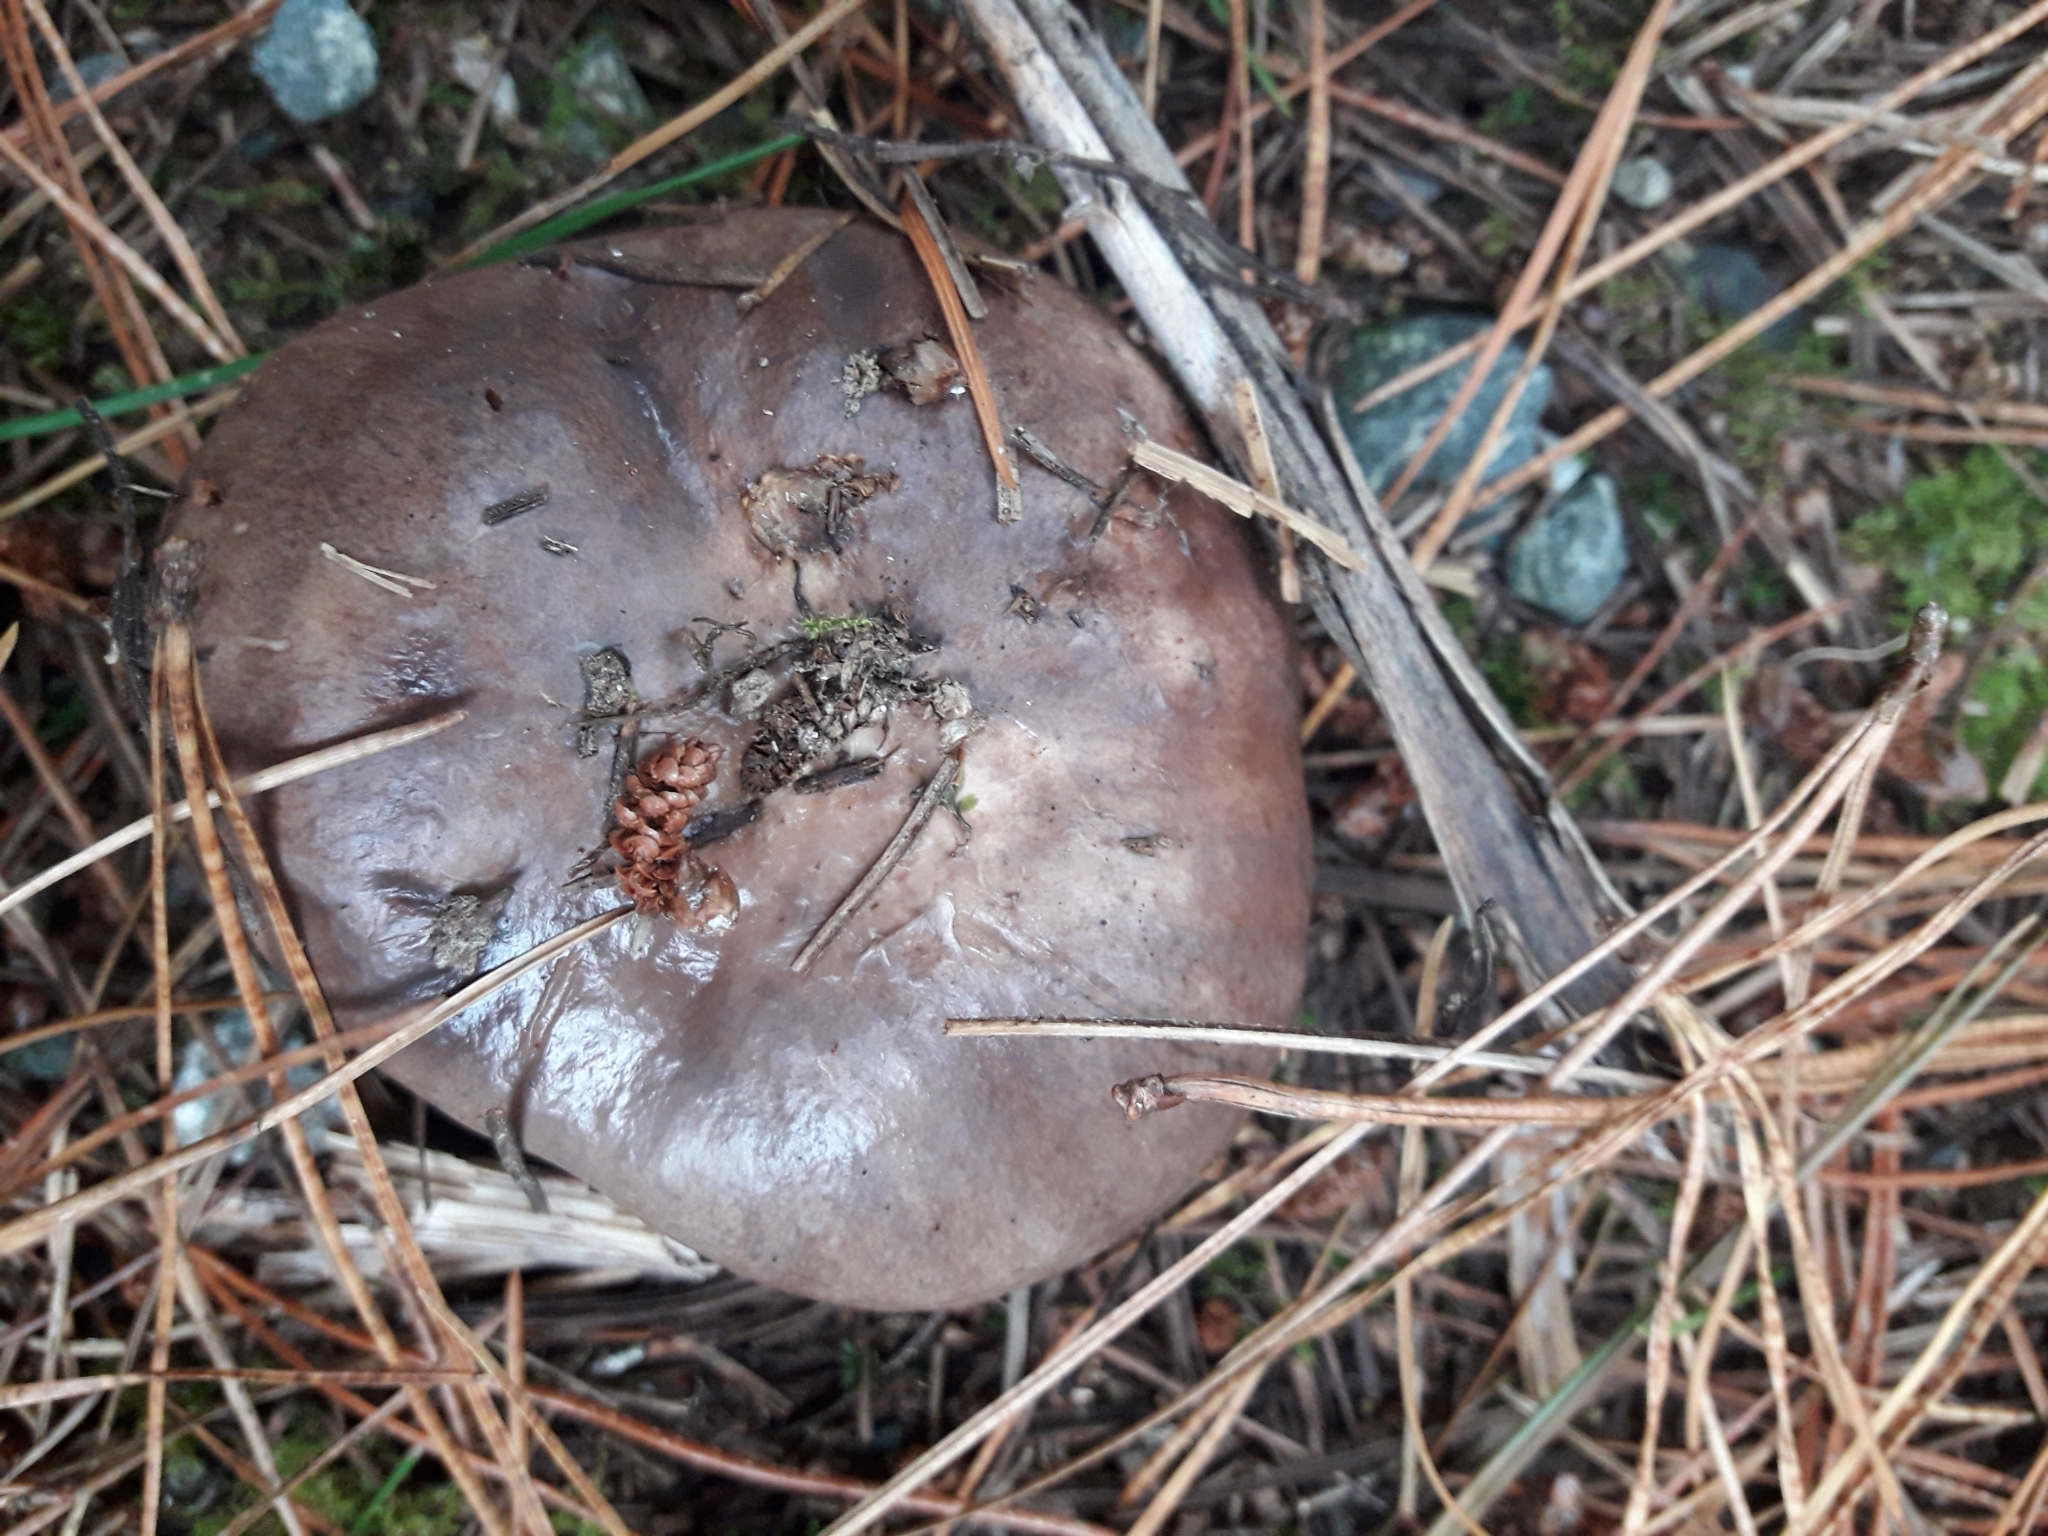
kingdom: Fungi
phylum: Basidiomycota
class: Agaricomycetes
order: Boletales
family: Suillaceae
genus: Suillus
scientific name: Suillus pungens
